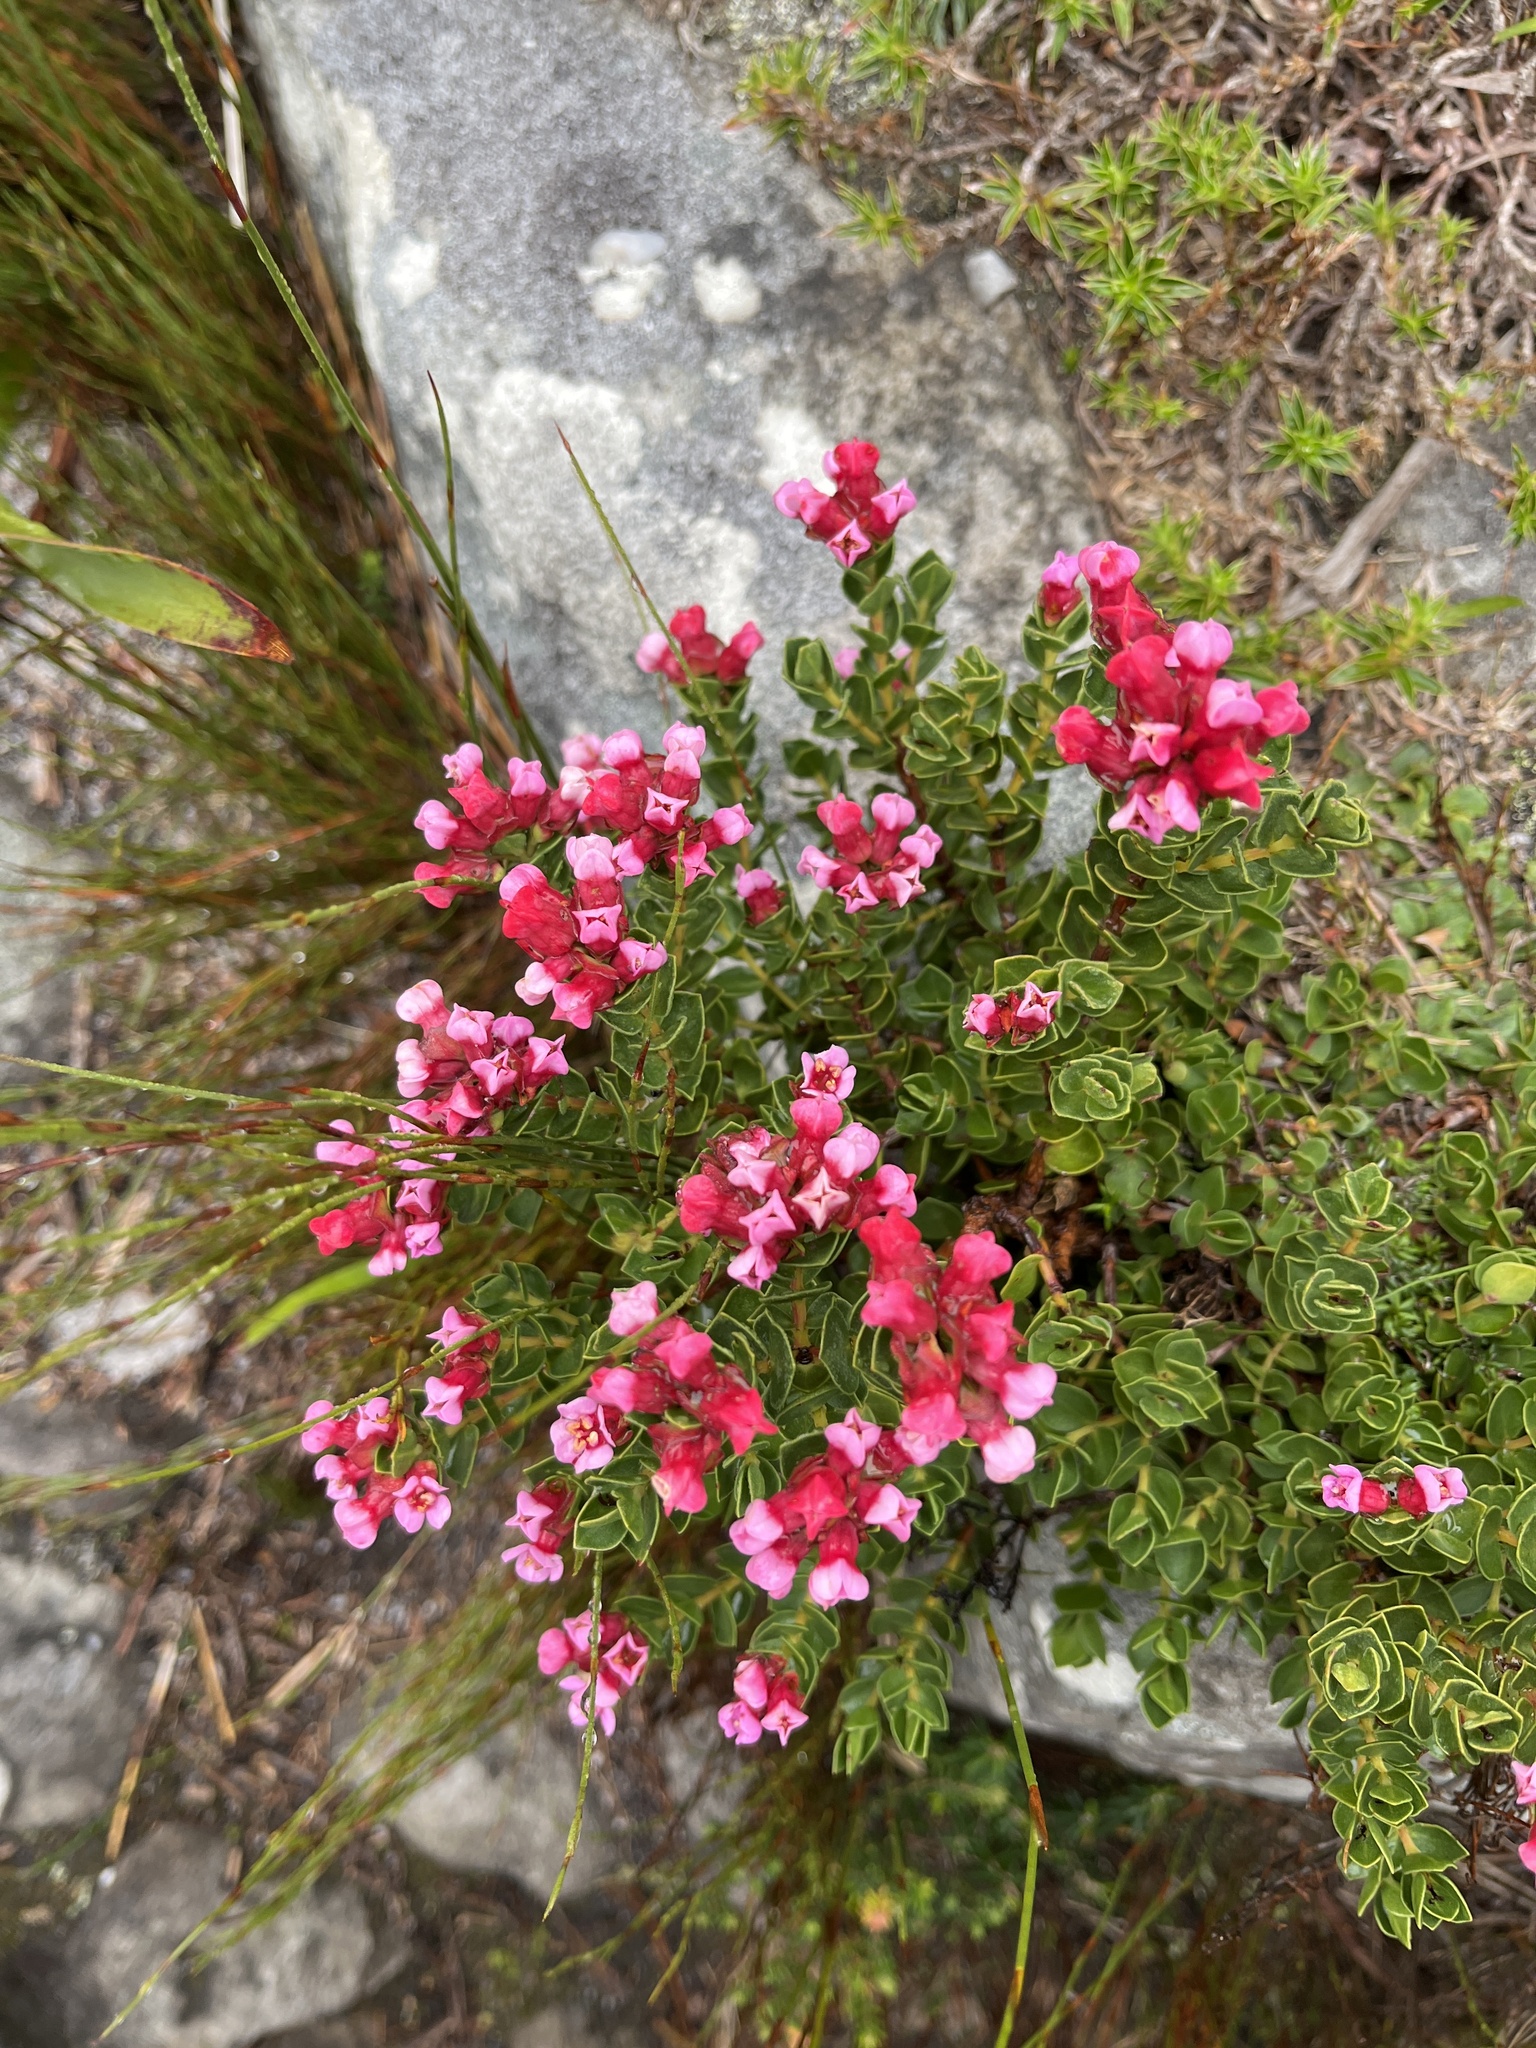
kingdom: Plantae
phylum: Tracheophyta
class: Magnoliopsida
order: Myrtales
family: Penaeaceae
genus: Brachysiphon
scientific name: Brachysiphon fucatus
